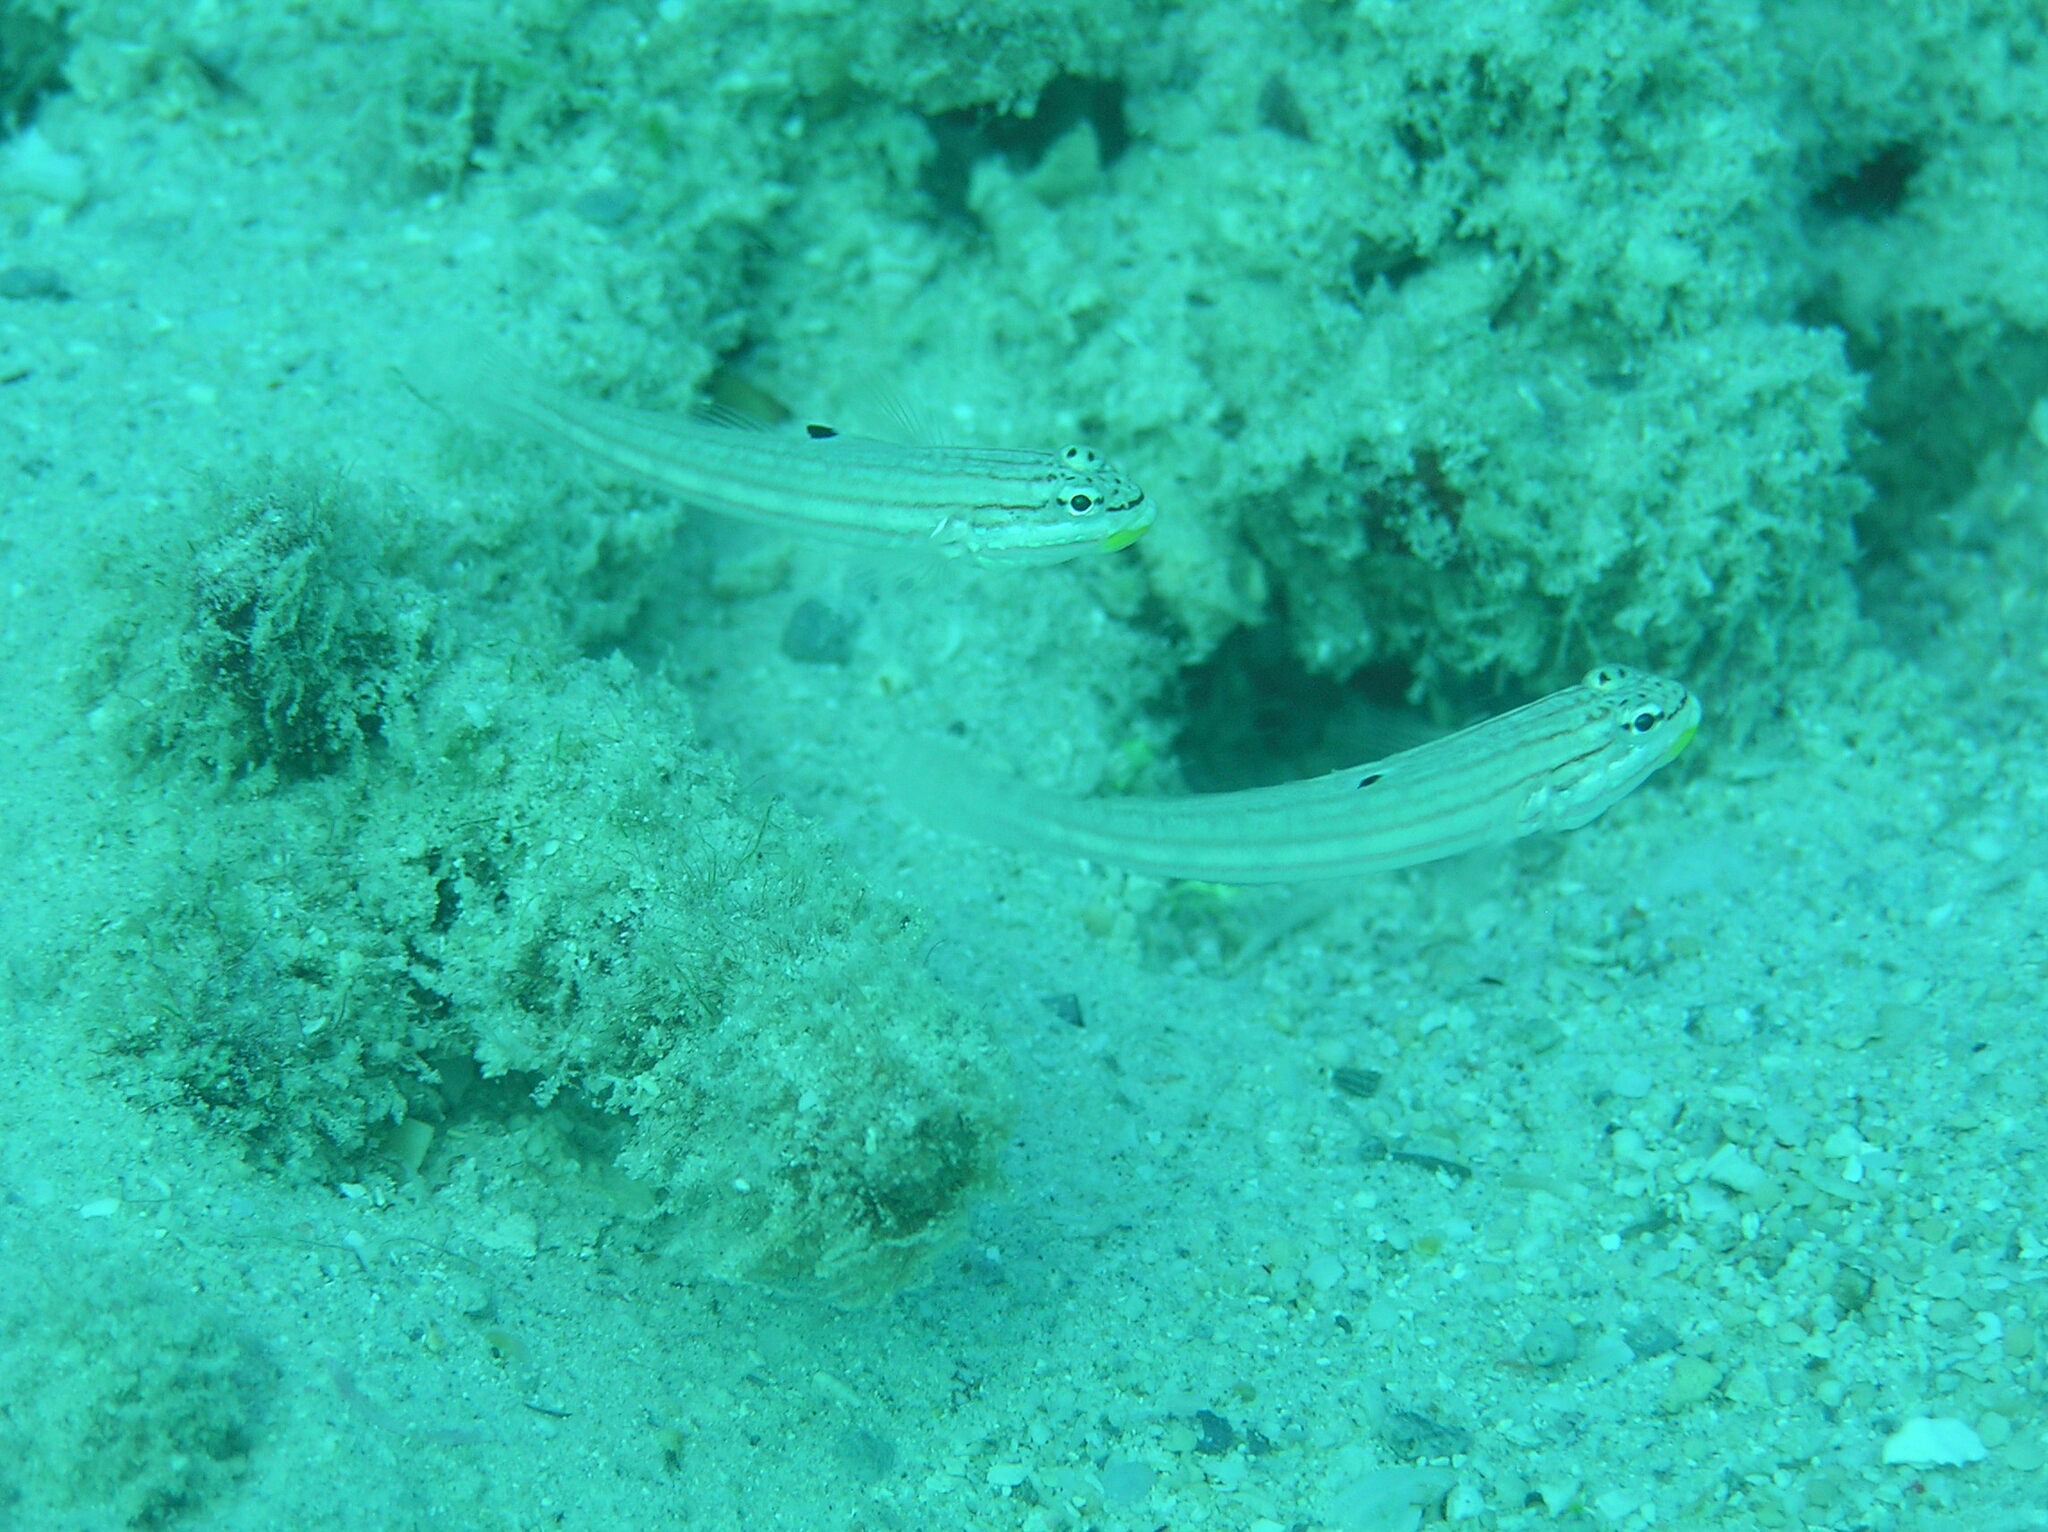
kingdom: Animalia
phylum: Chordata
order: Perciformes
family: Gobiidae
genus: Valenciennea
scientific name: Valenciennea muralis
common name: Mural goby
